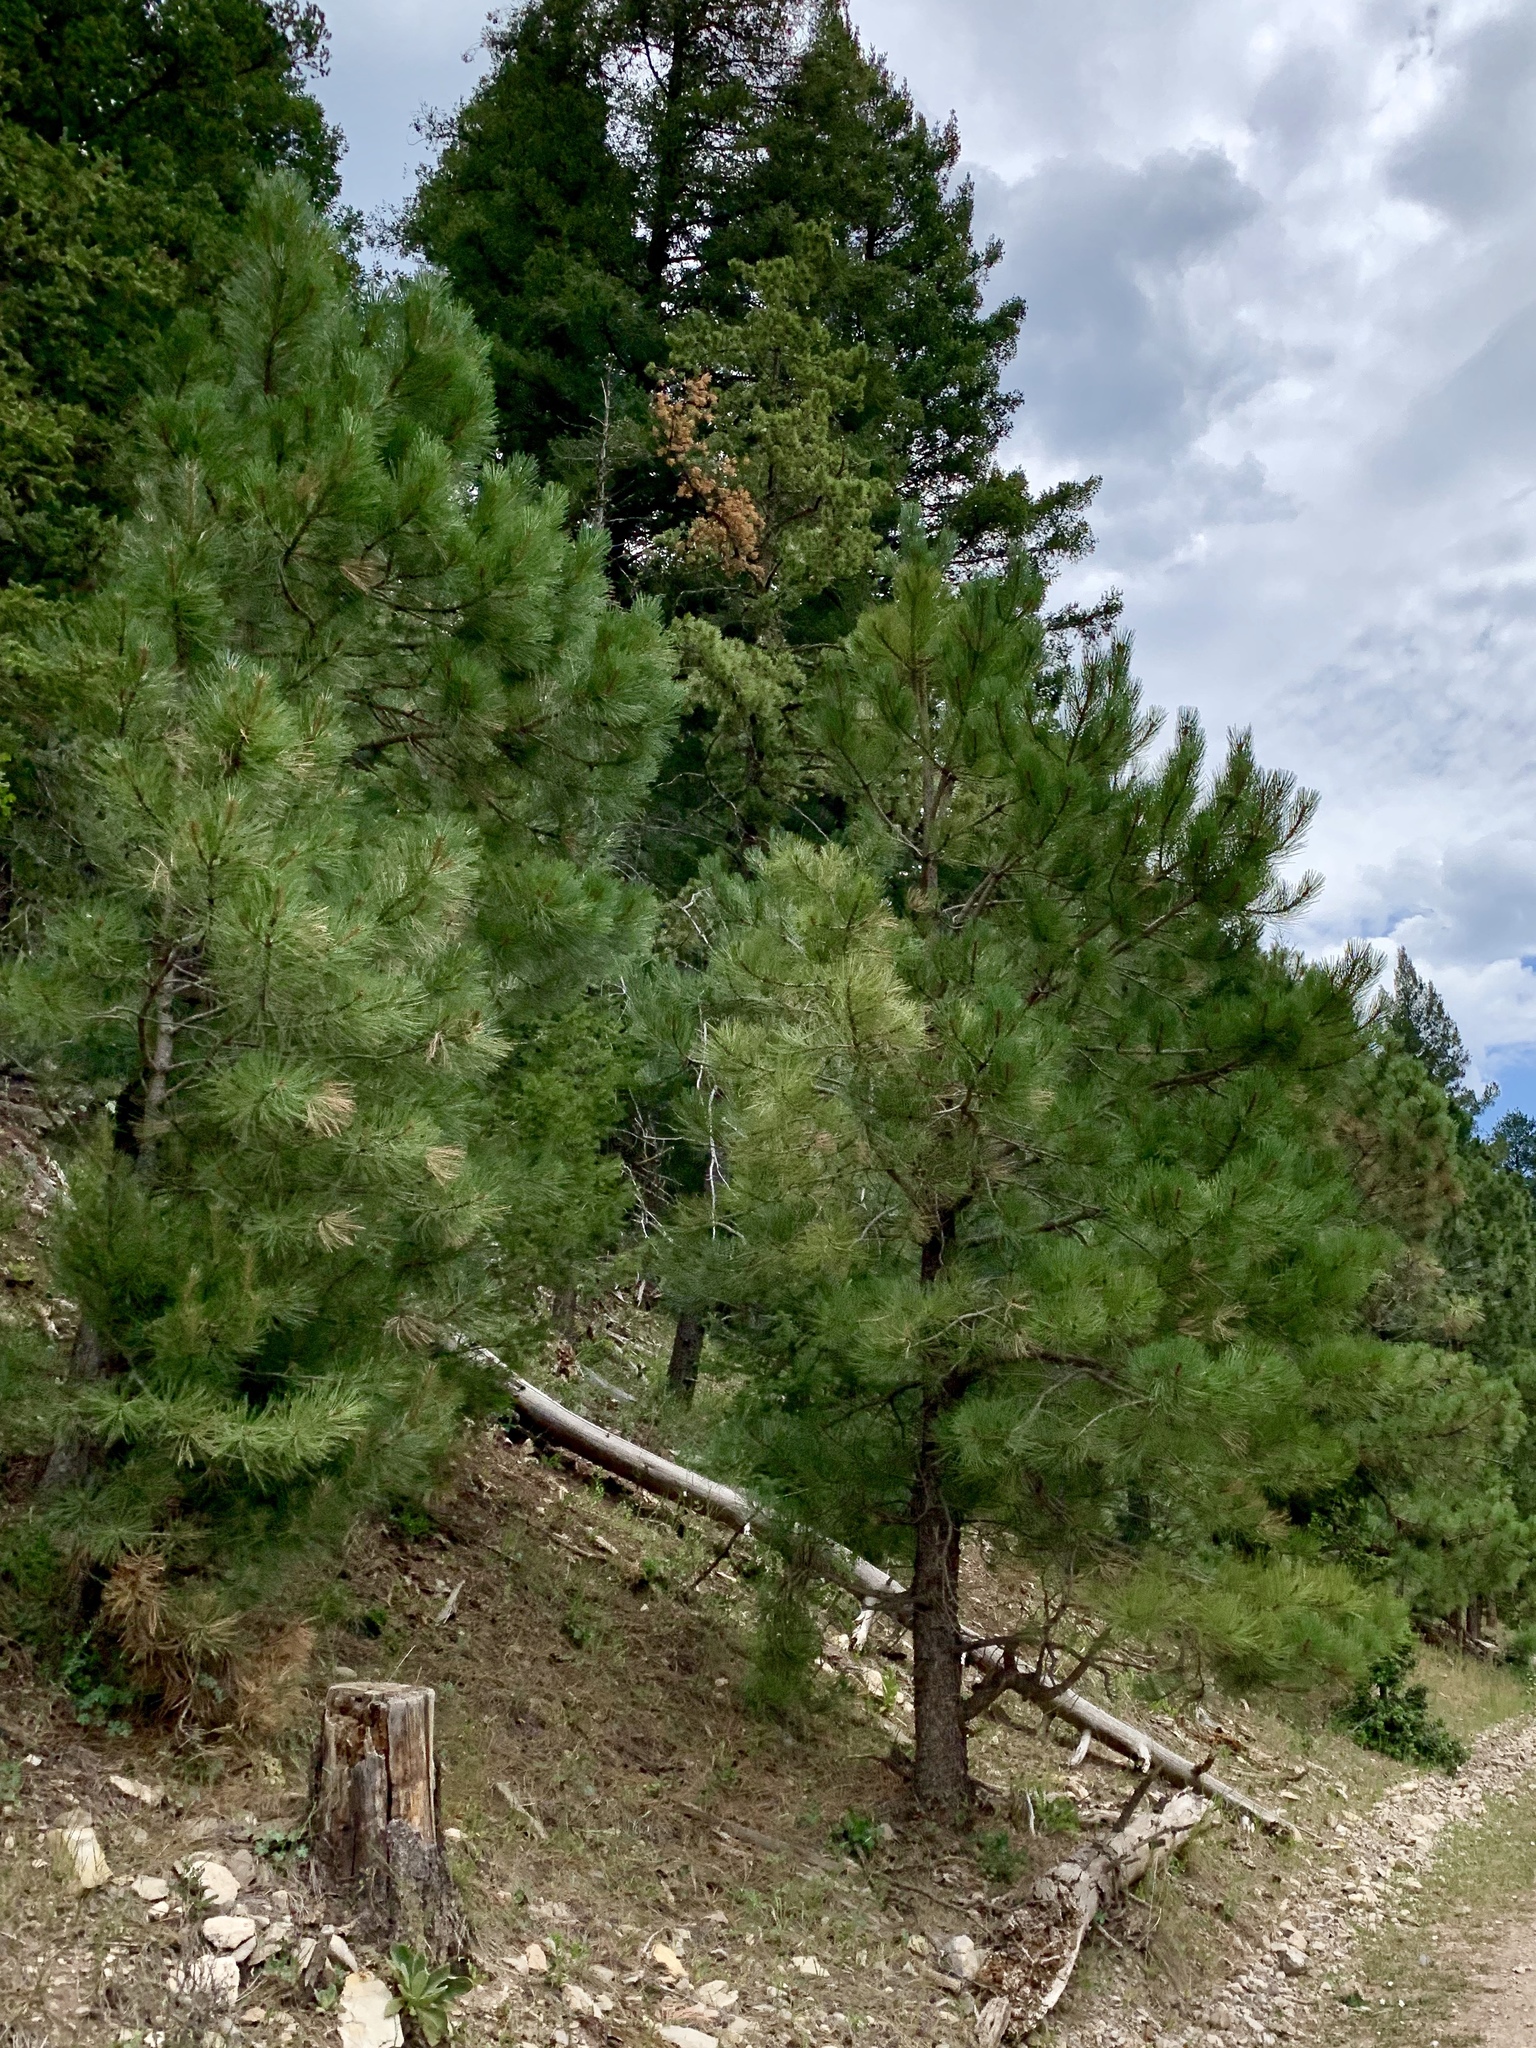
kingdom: Plantae
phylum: Tracheophyta
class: Pinopsida
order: Pinales
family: Pinaceae
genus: Pinus
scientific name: Pinus ponderosa
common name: Western yellow-pine
